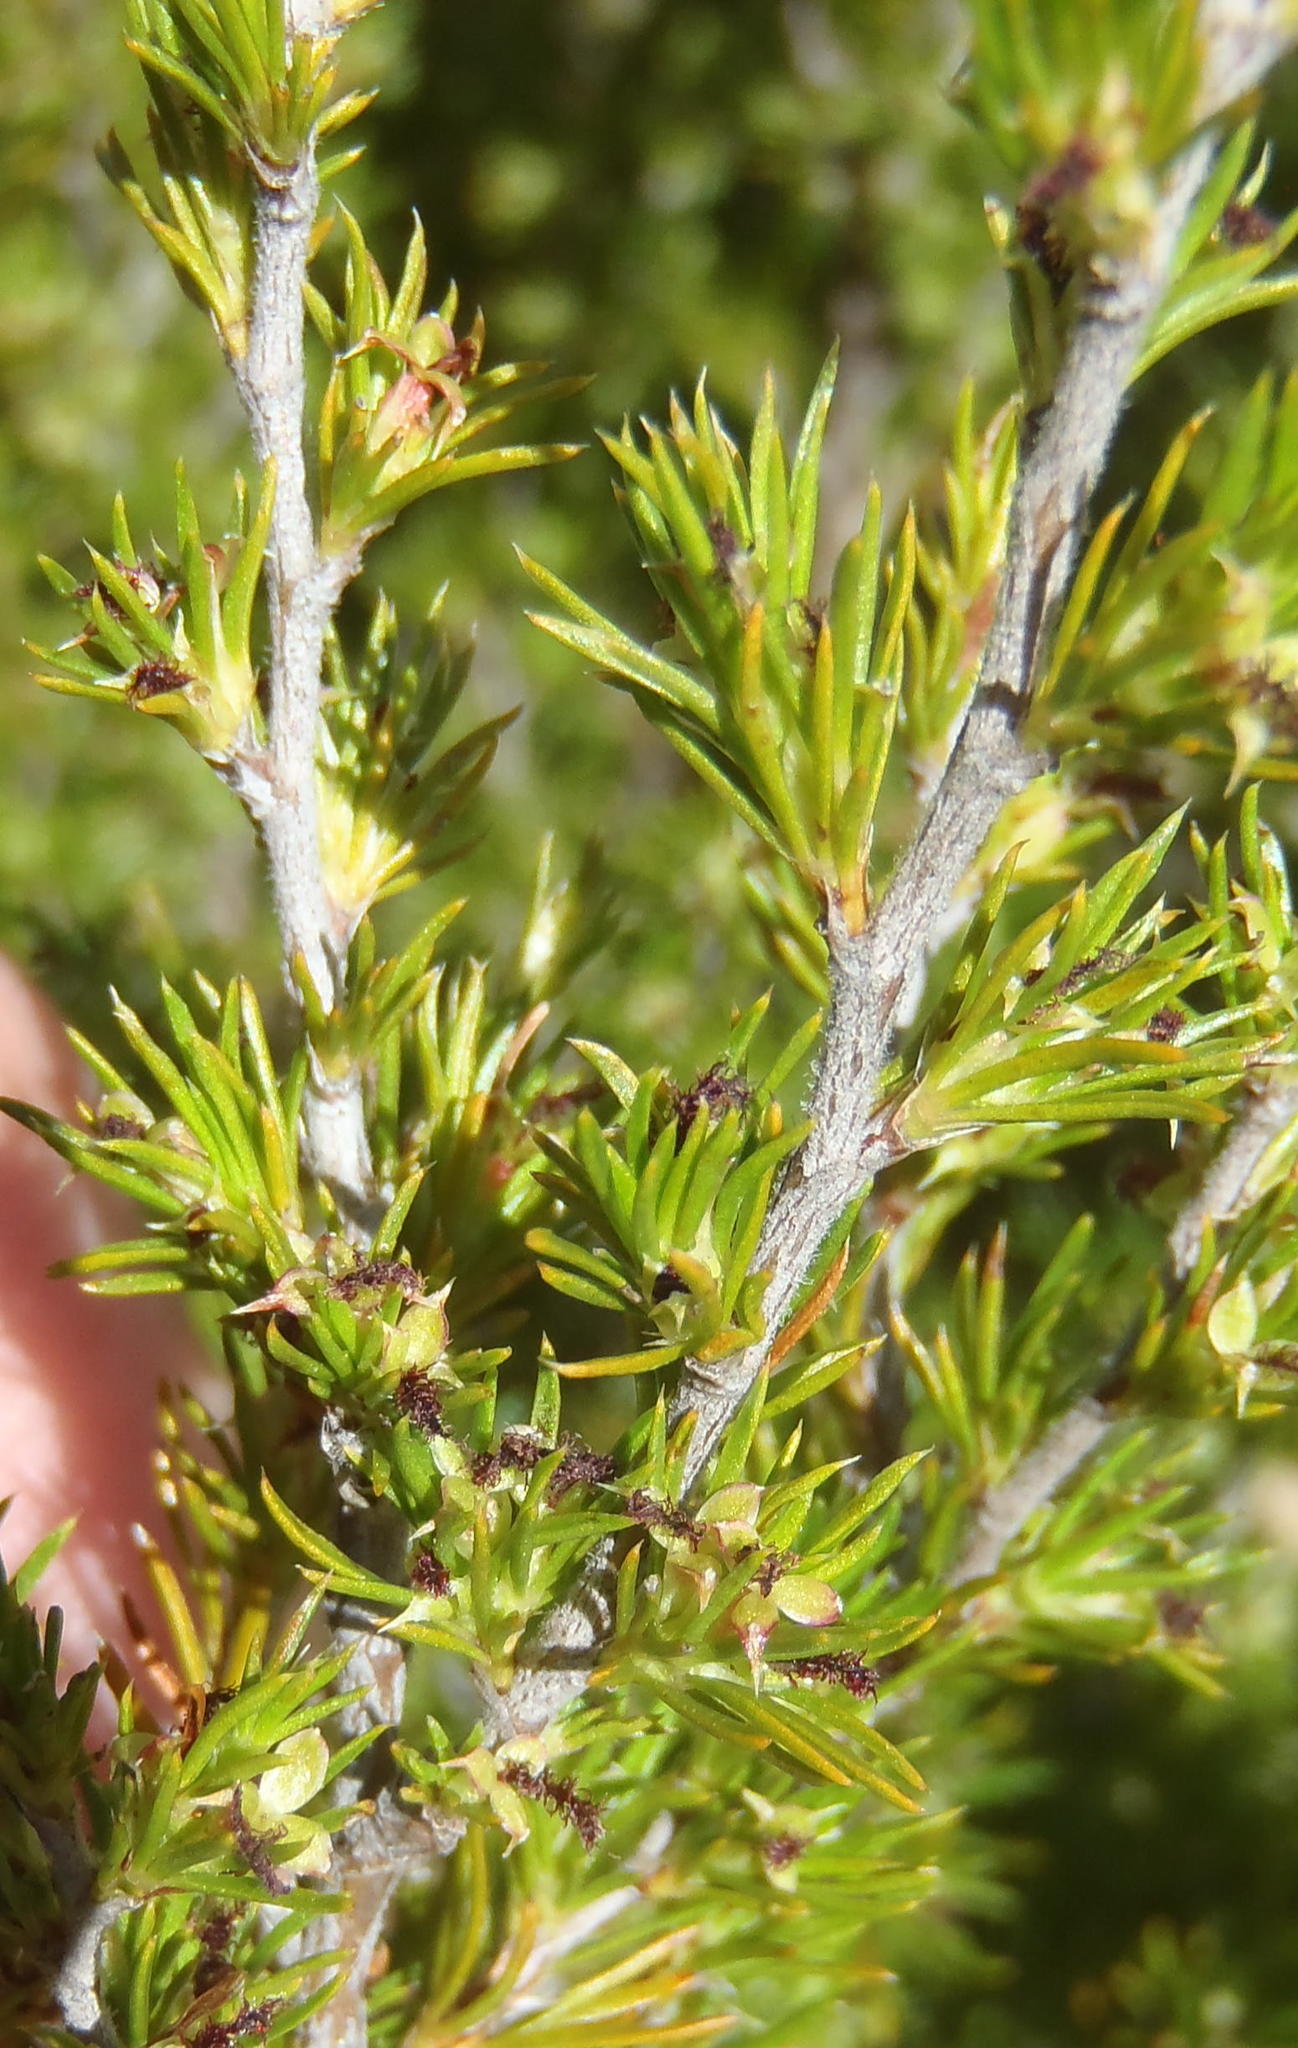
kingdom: Plantae
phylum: Tracheophyta
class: Magnoliopsida
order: Rosales
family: Rosaceae
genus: Cliffortia
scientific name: Cliffortia tuberculata
